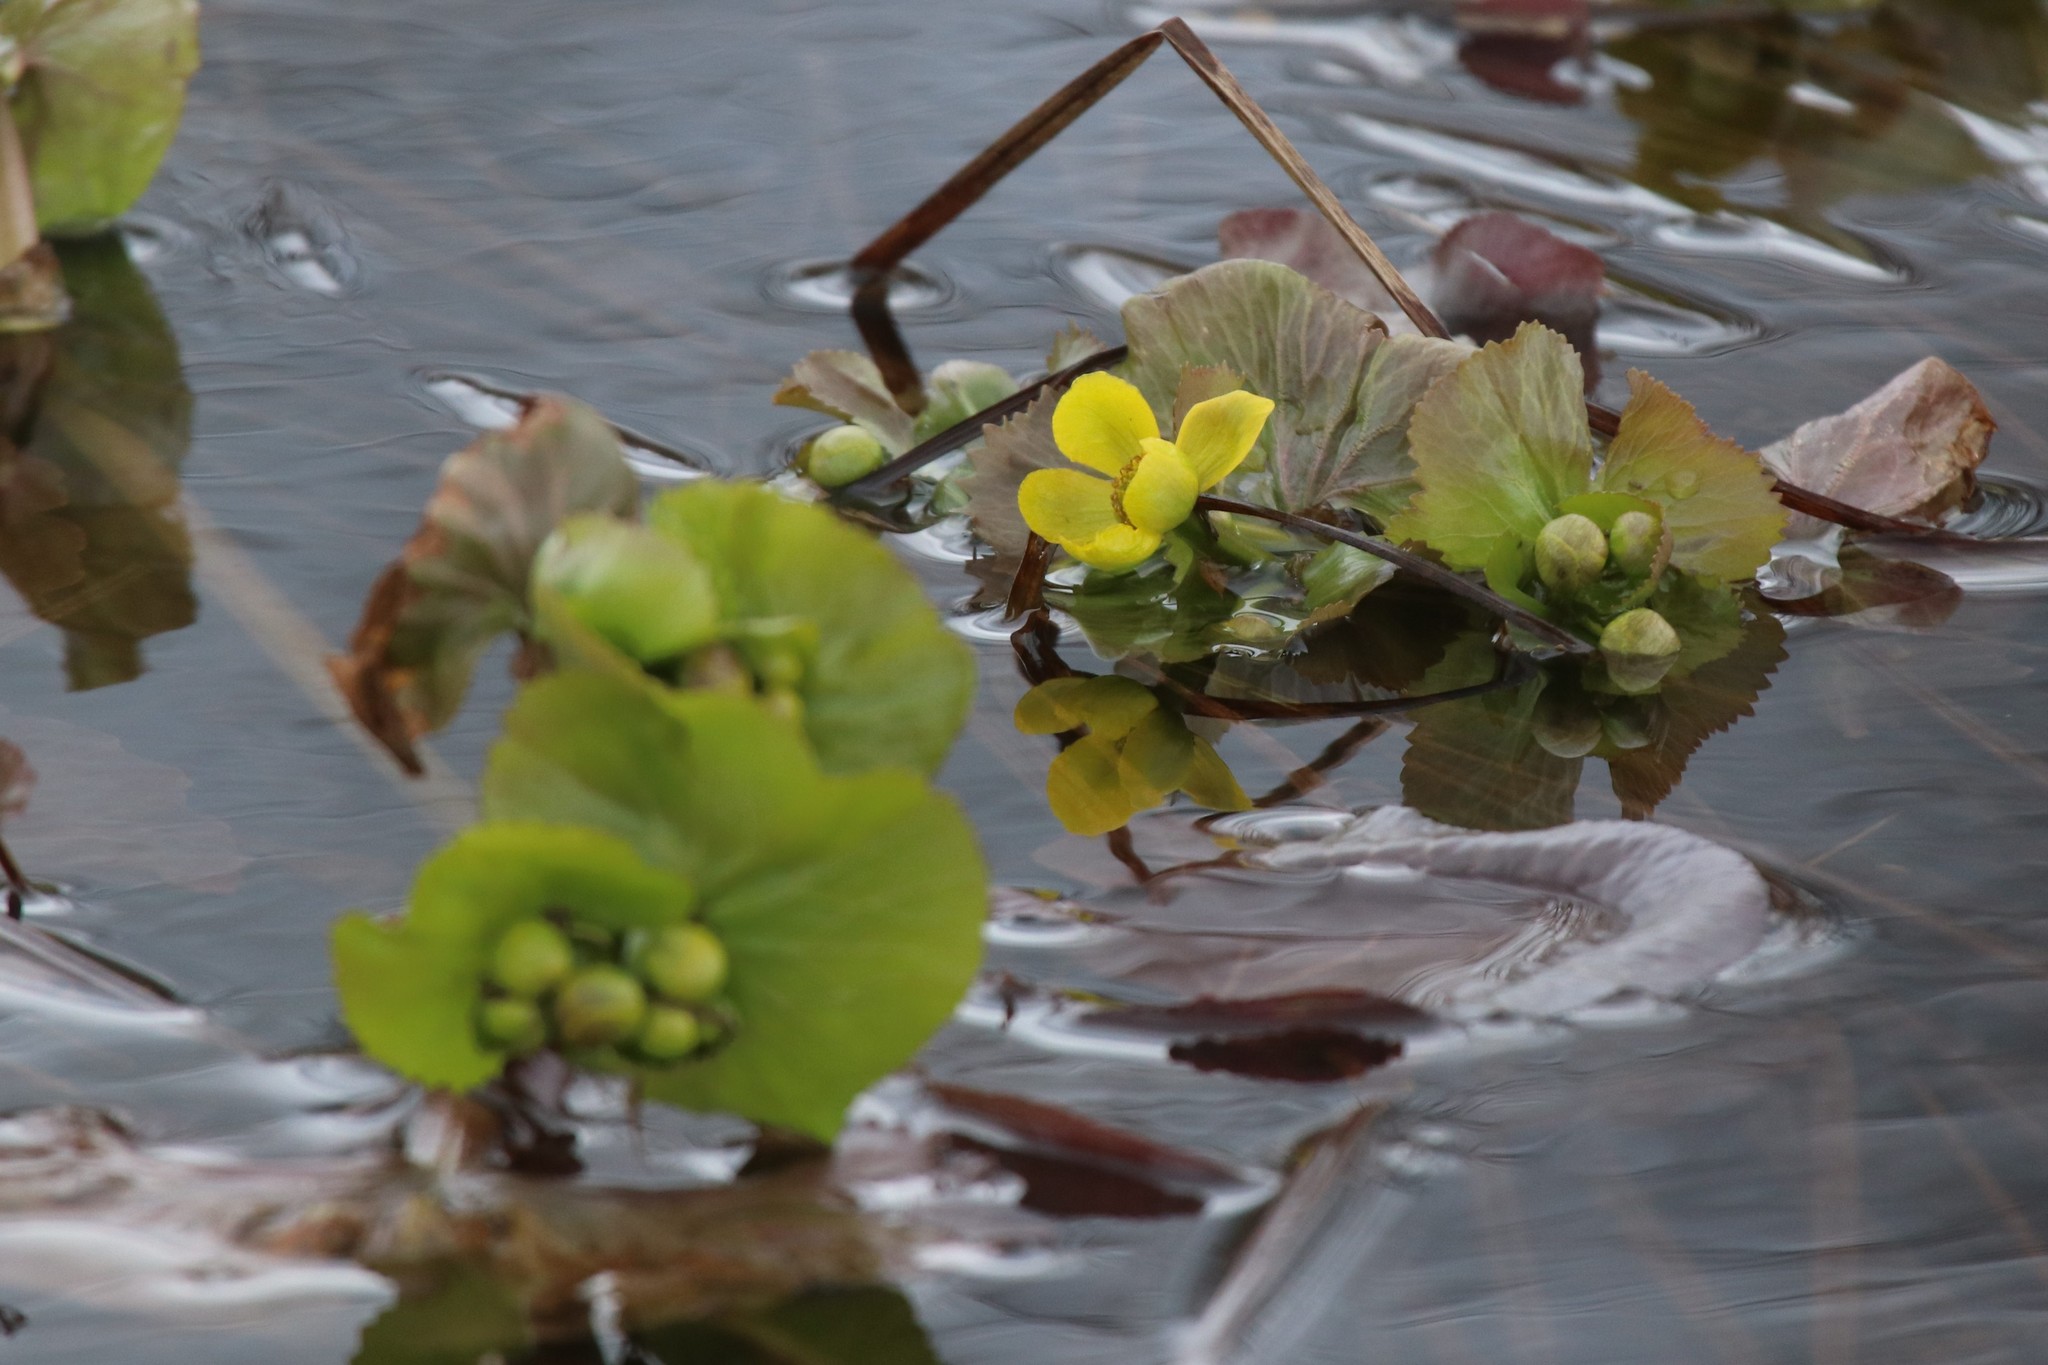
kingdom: Plantae
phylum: Tracheophyta
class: Magnoliopsida
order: Ranunculales
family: Ranunculaceae
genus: Caltha
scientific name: Caltha palustris
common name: Marsh marigold
